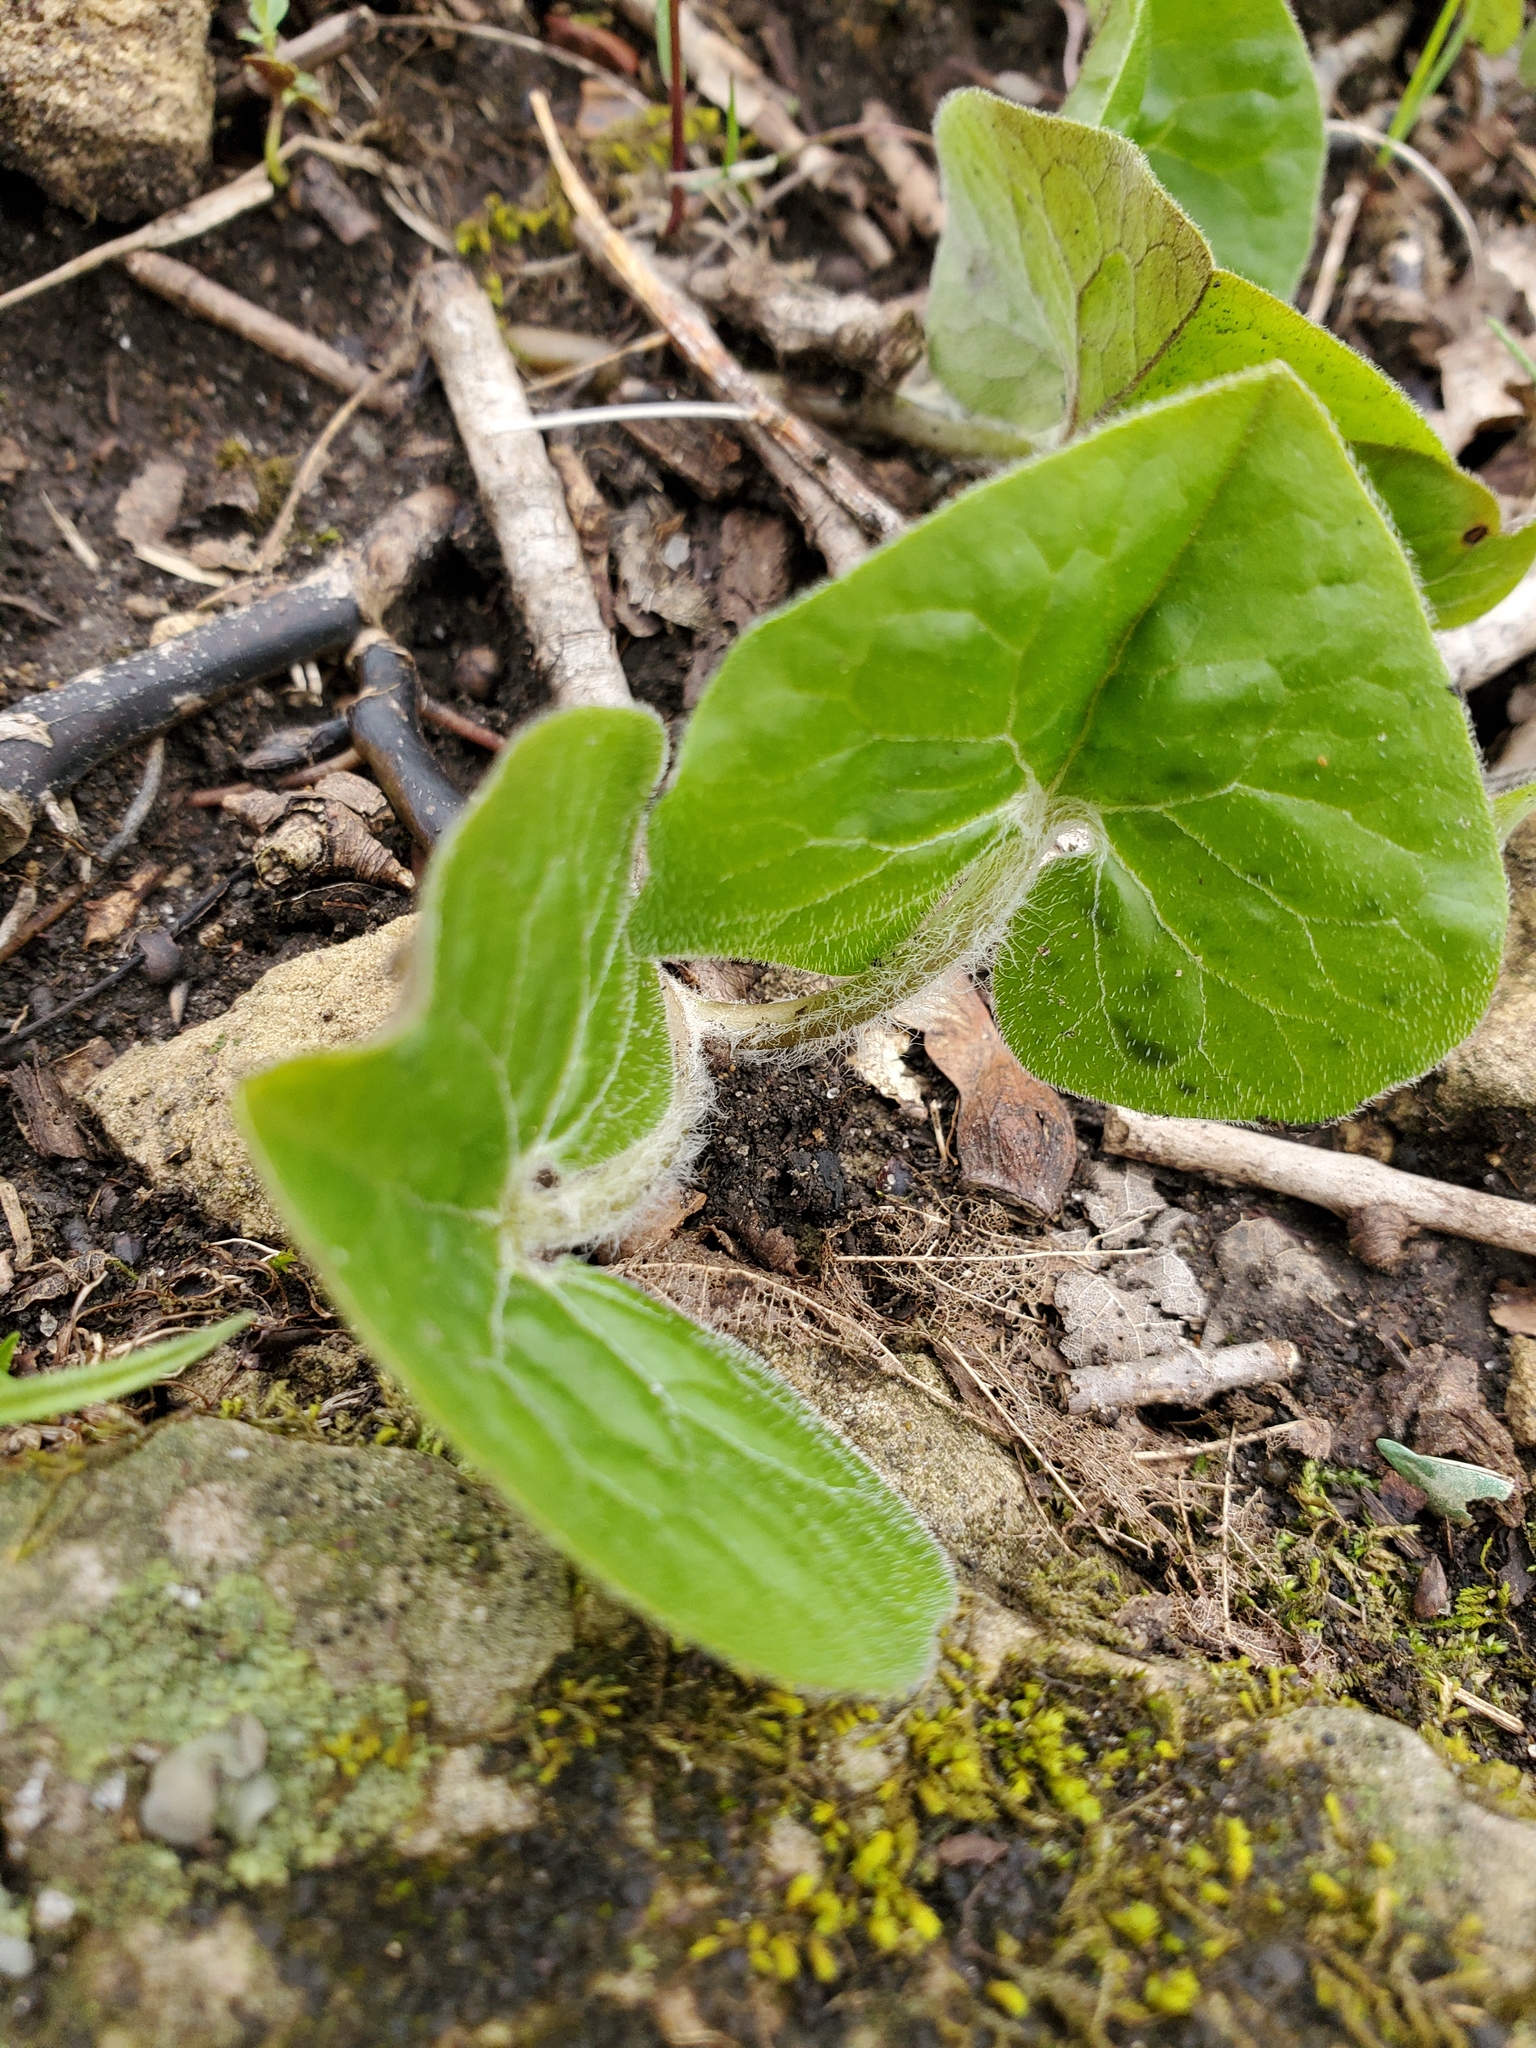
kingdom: Plantae
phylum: Tracheophyta
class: Magnoliopsida
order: Piperales
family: Aristolochiaceae
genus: Asarum
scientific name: Asarum canadense
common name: Wild ginger
